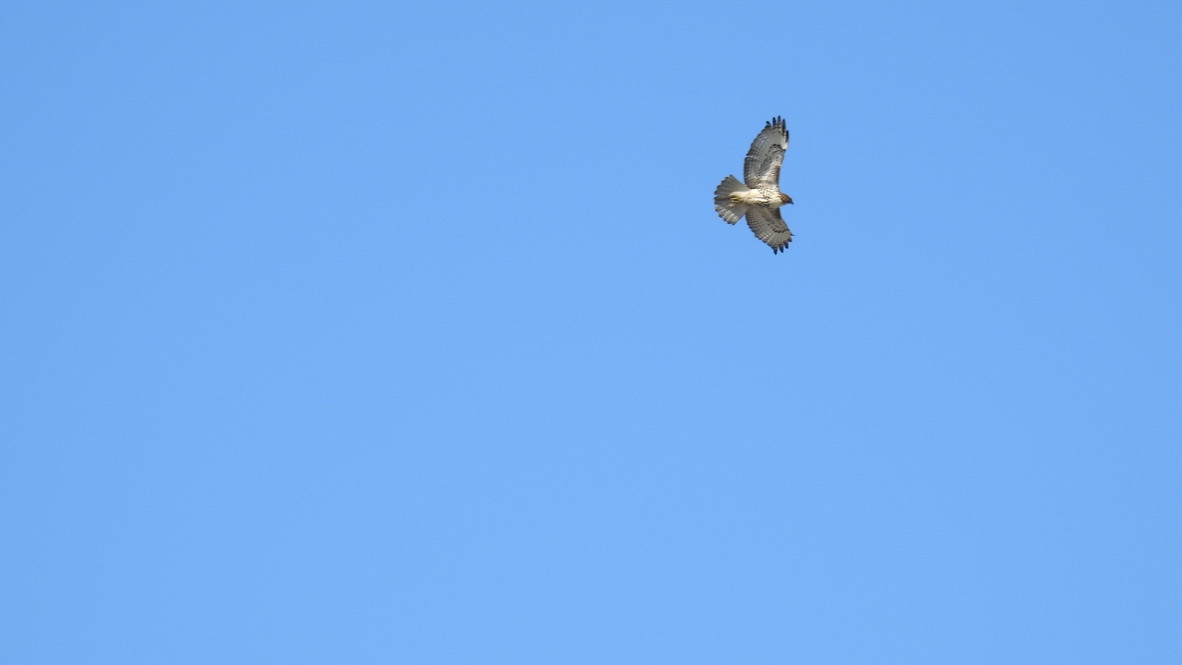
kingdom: Animalia
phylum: Chordata
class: Aves
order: Accipitriformes
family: Accipitridae
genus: Buteo
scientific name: Buteo jamaicensis
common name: Red-tailed hawk
